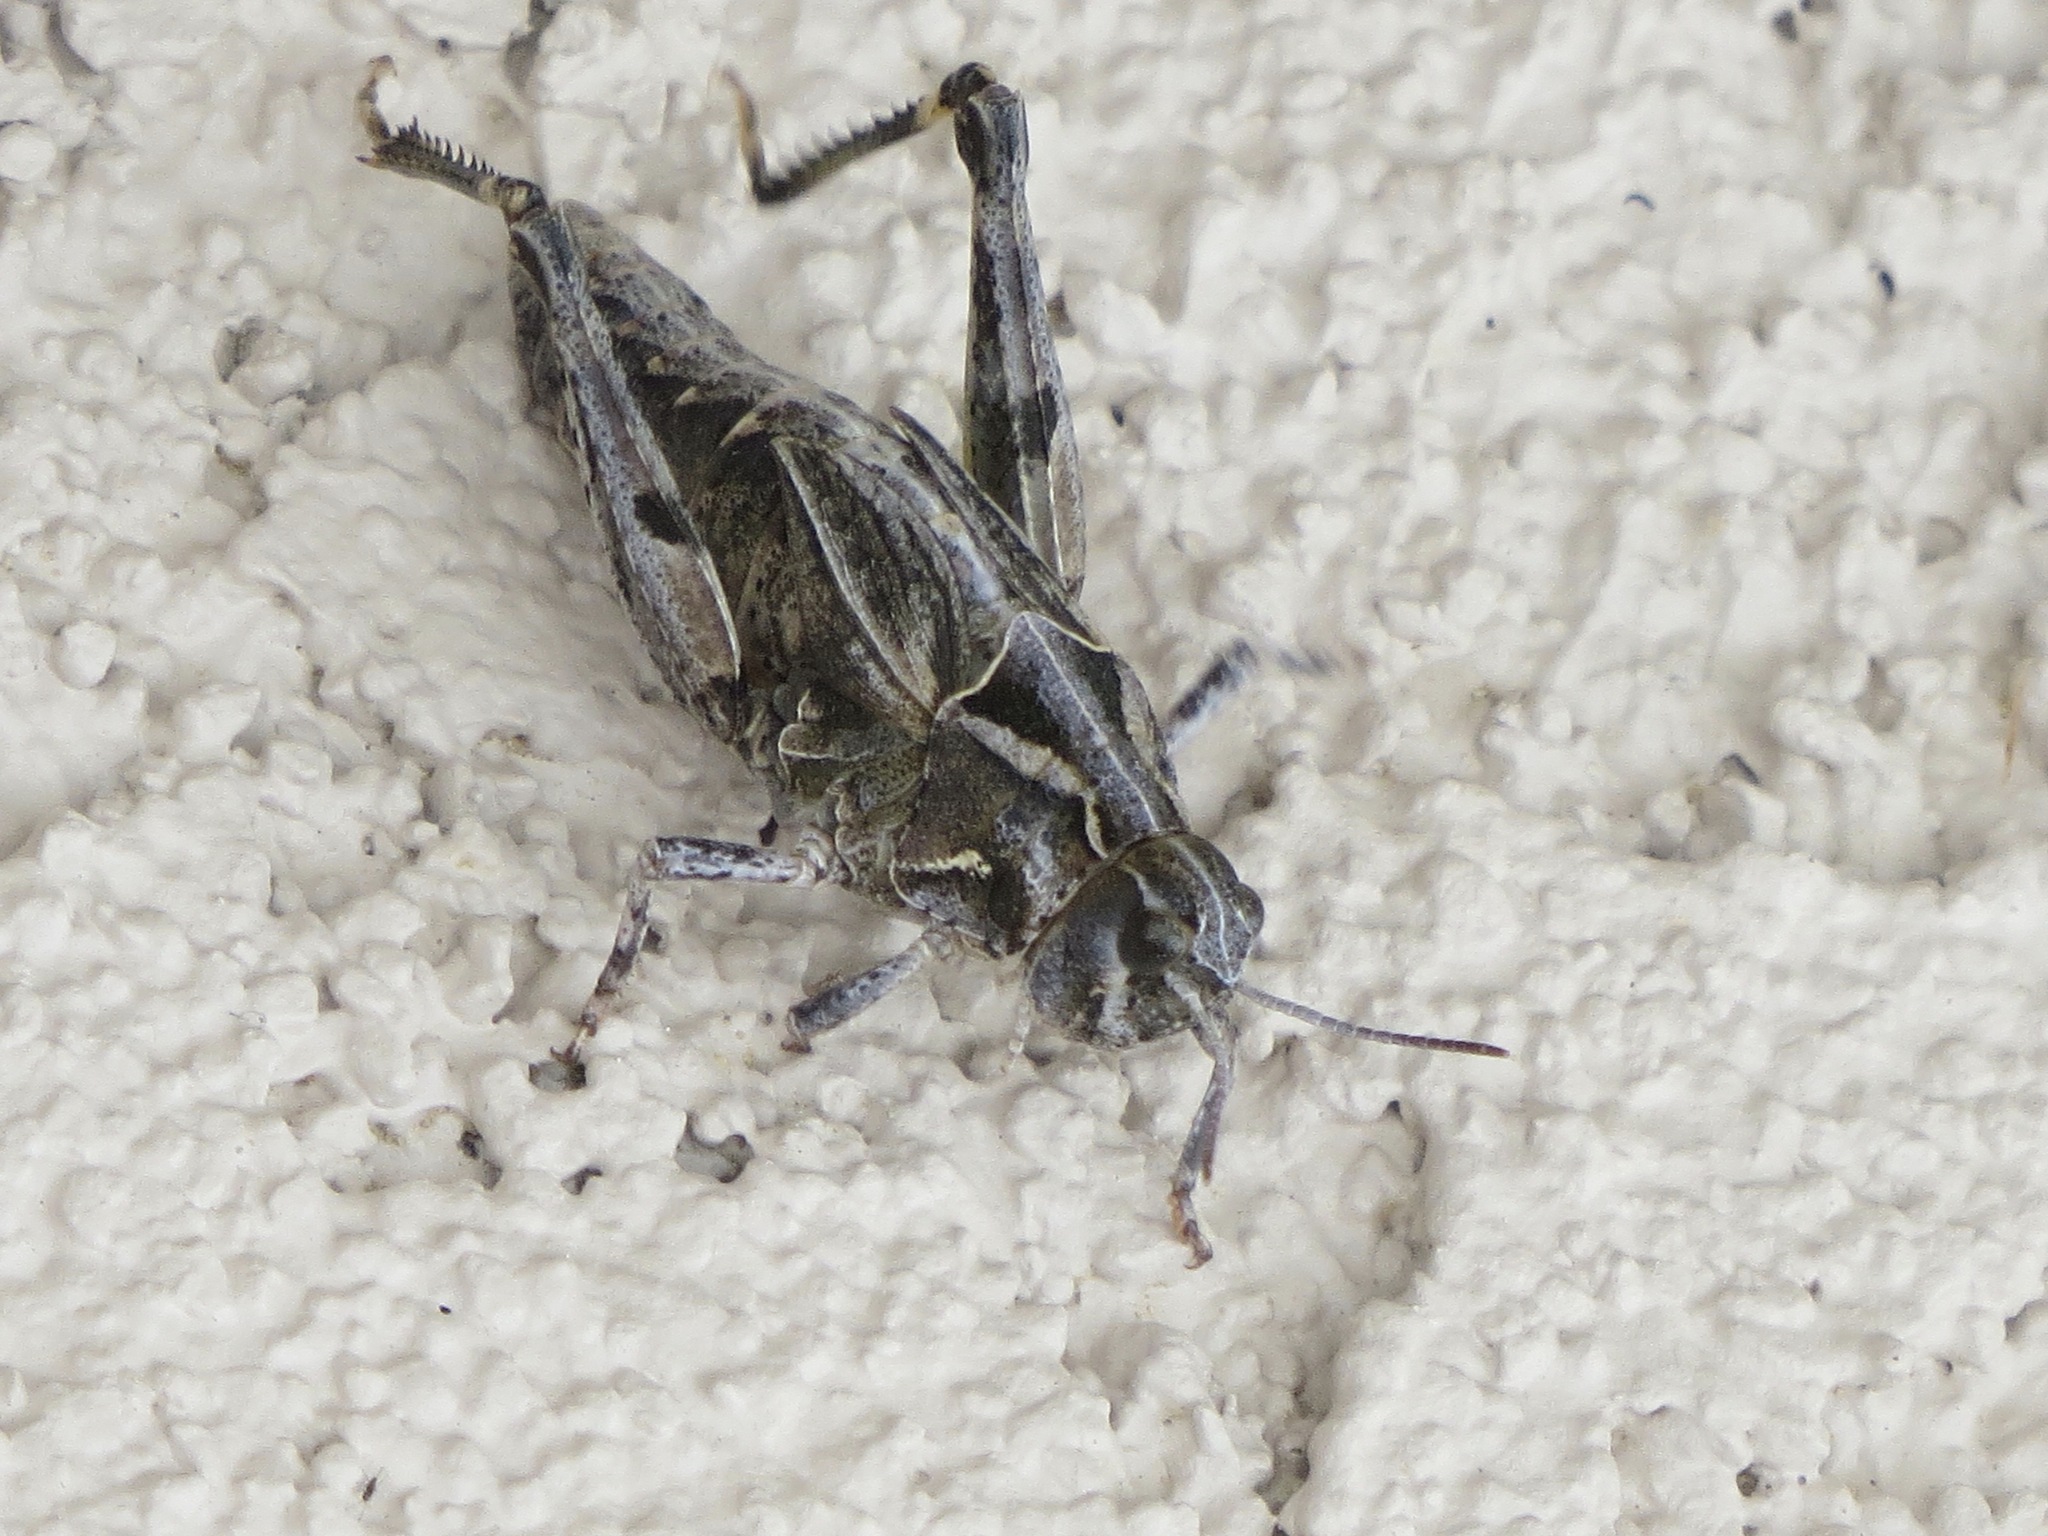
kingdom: Animalia
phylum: Arthropoda
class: Insecta
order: Orthoptera
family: Acrididae
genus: Esselenia
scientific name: Esselenia vanduzeei
